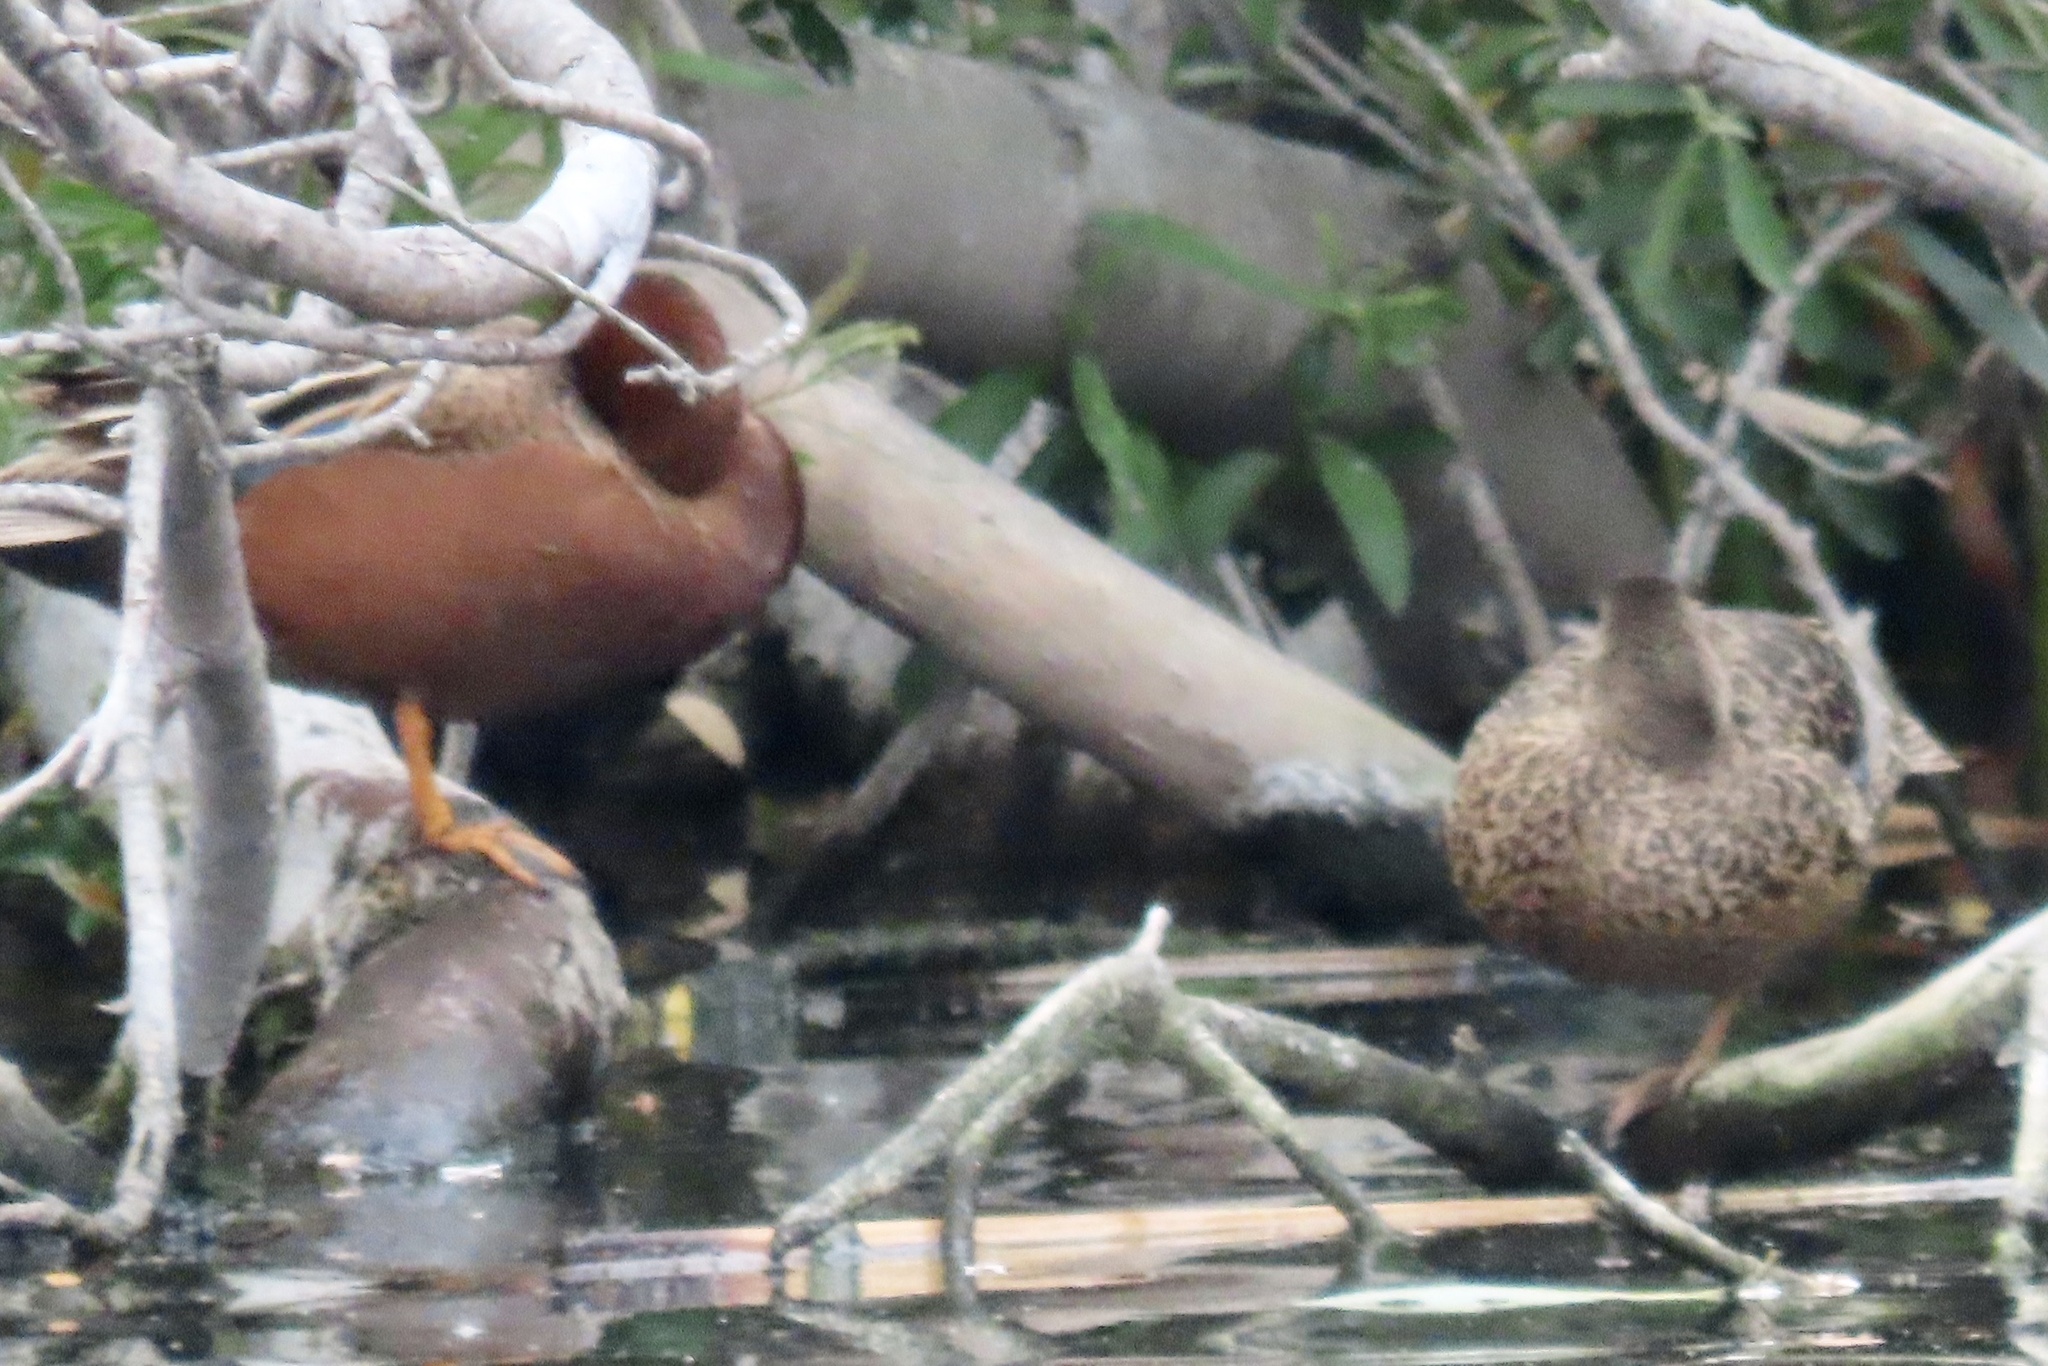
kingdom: Animalia
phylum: Chordata
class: Aves
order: Anseriformes
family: Anatidae
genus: Spatula
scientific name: Spatula cyanoptera
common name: Cinnamon teal
